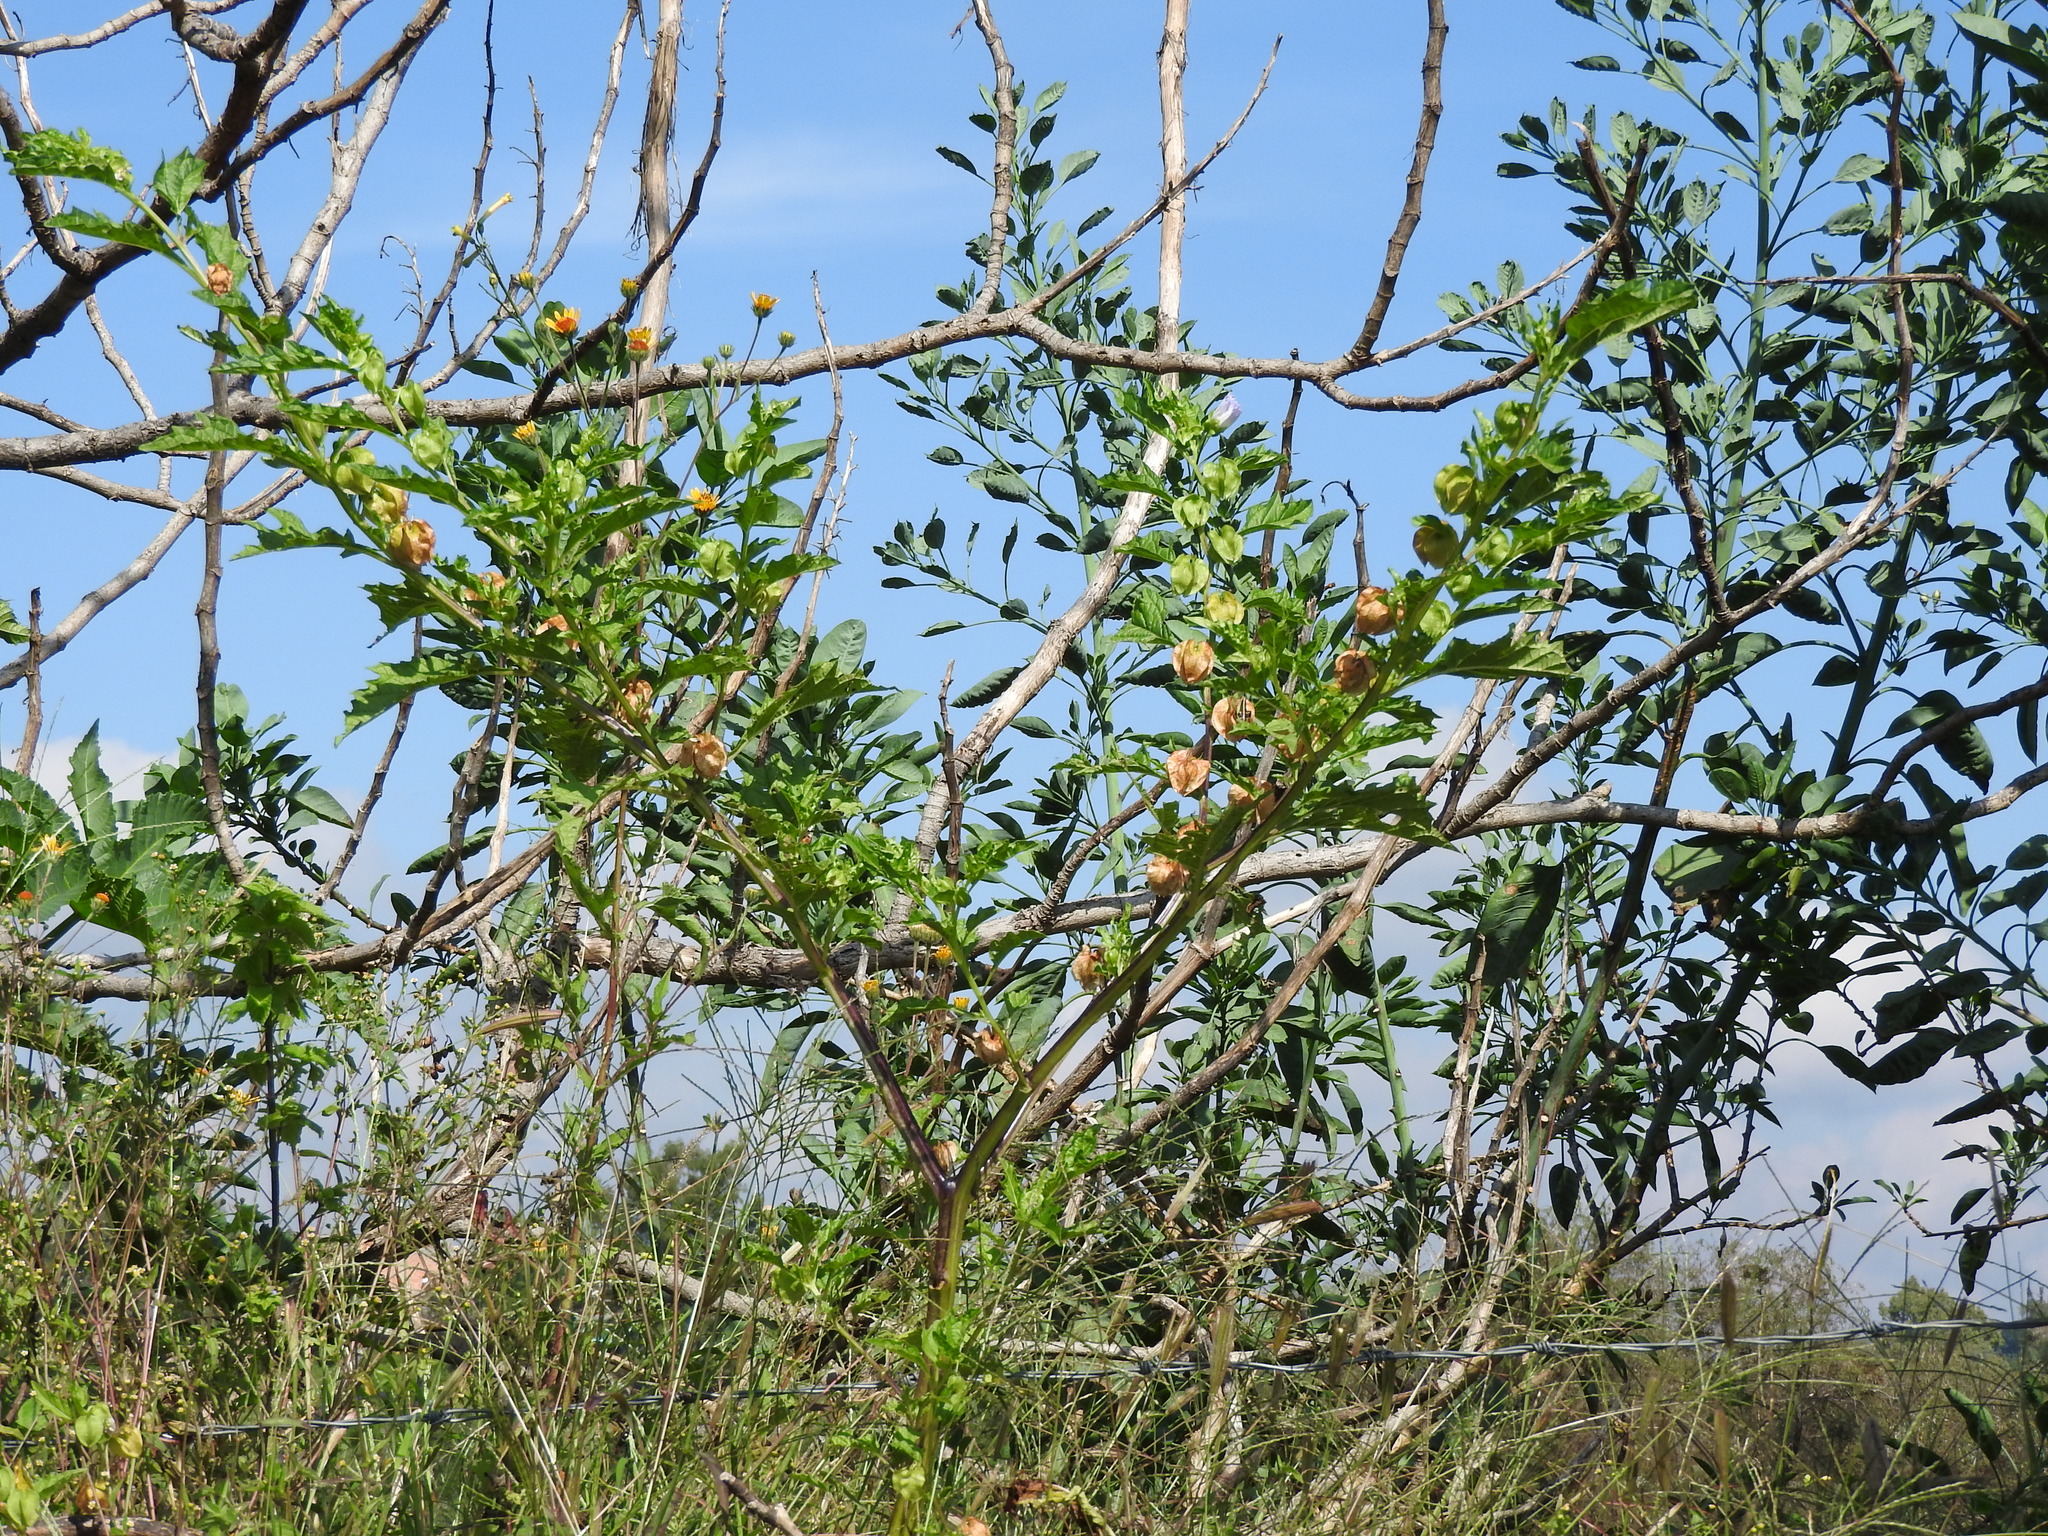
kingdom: Plantae
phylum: Tracheophyta
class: Magnoliopsida
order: Solanales
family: Solanaceae
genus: Nicandra
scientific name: Nicandra physalodes
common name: Apple-of-peru
